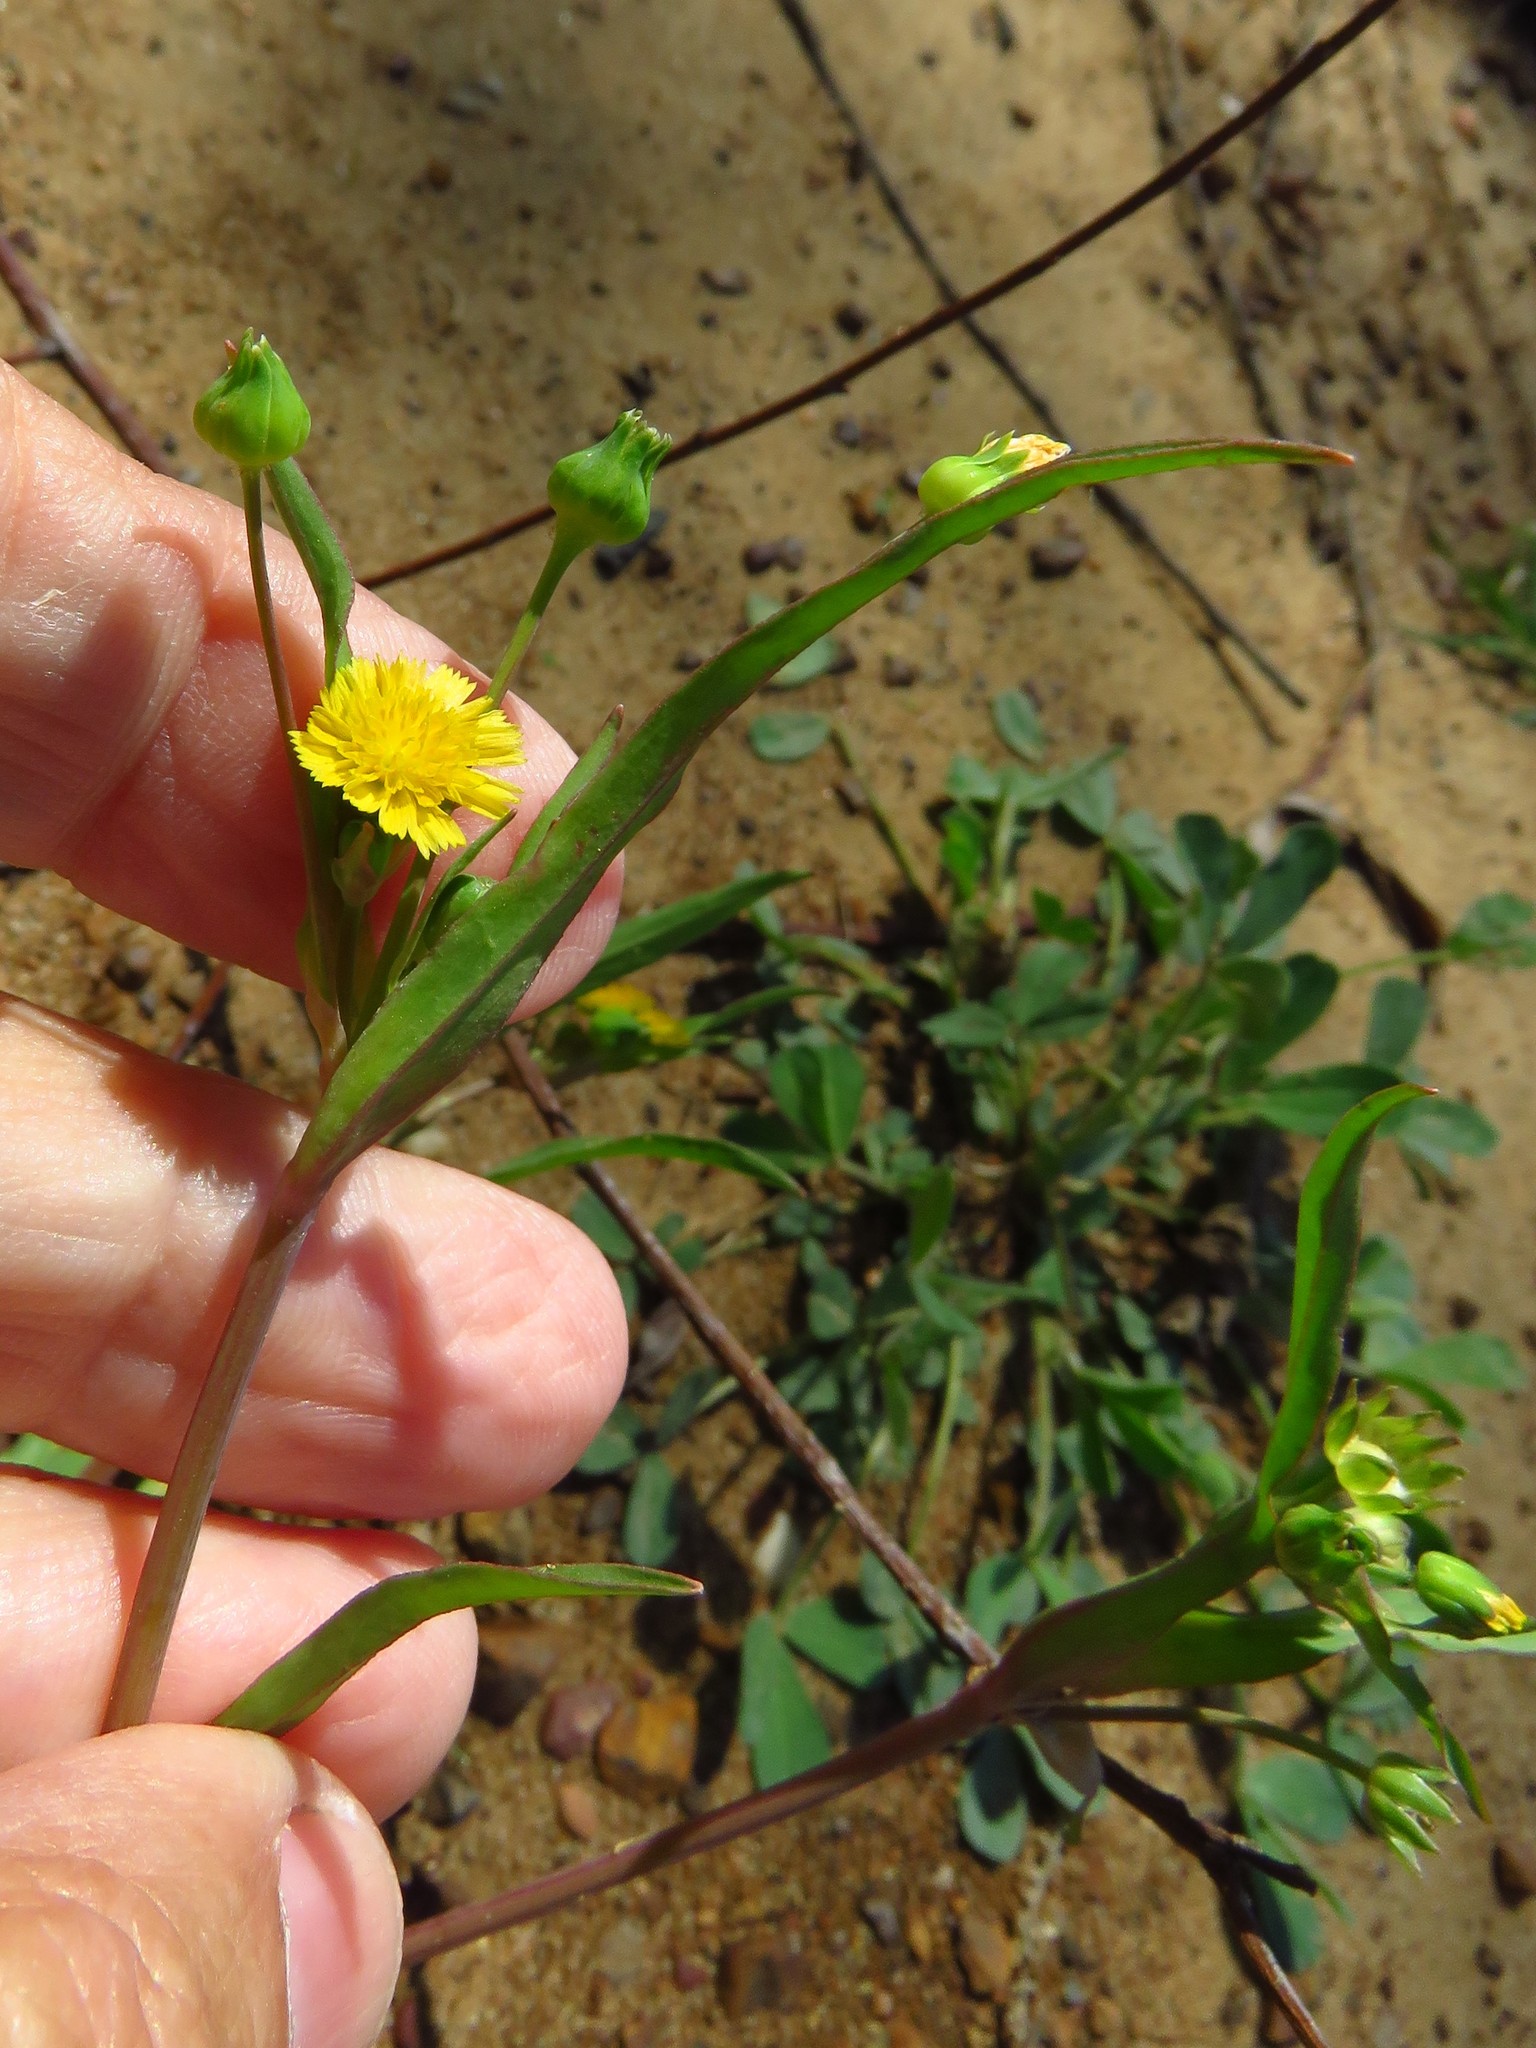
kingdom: Plantae
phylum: Tracheophyta
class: Magnoliopsida
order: Asterales
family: Asteraceae
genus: Krigia
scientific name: Krigia cespitosa
